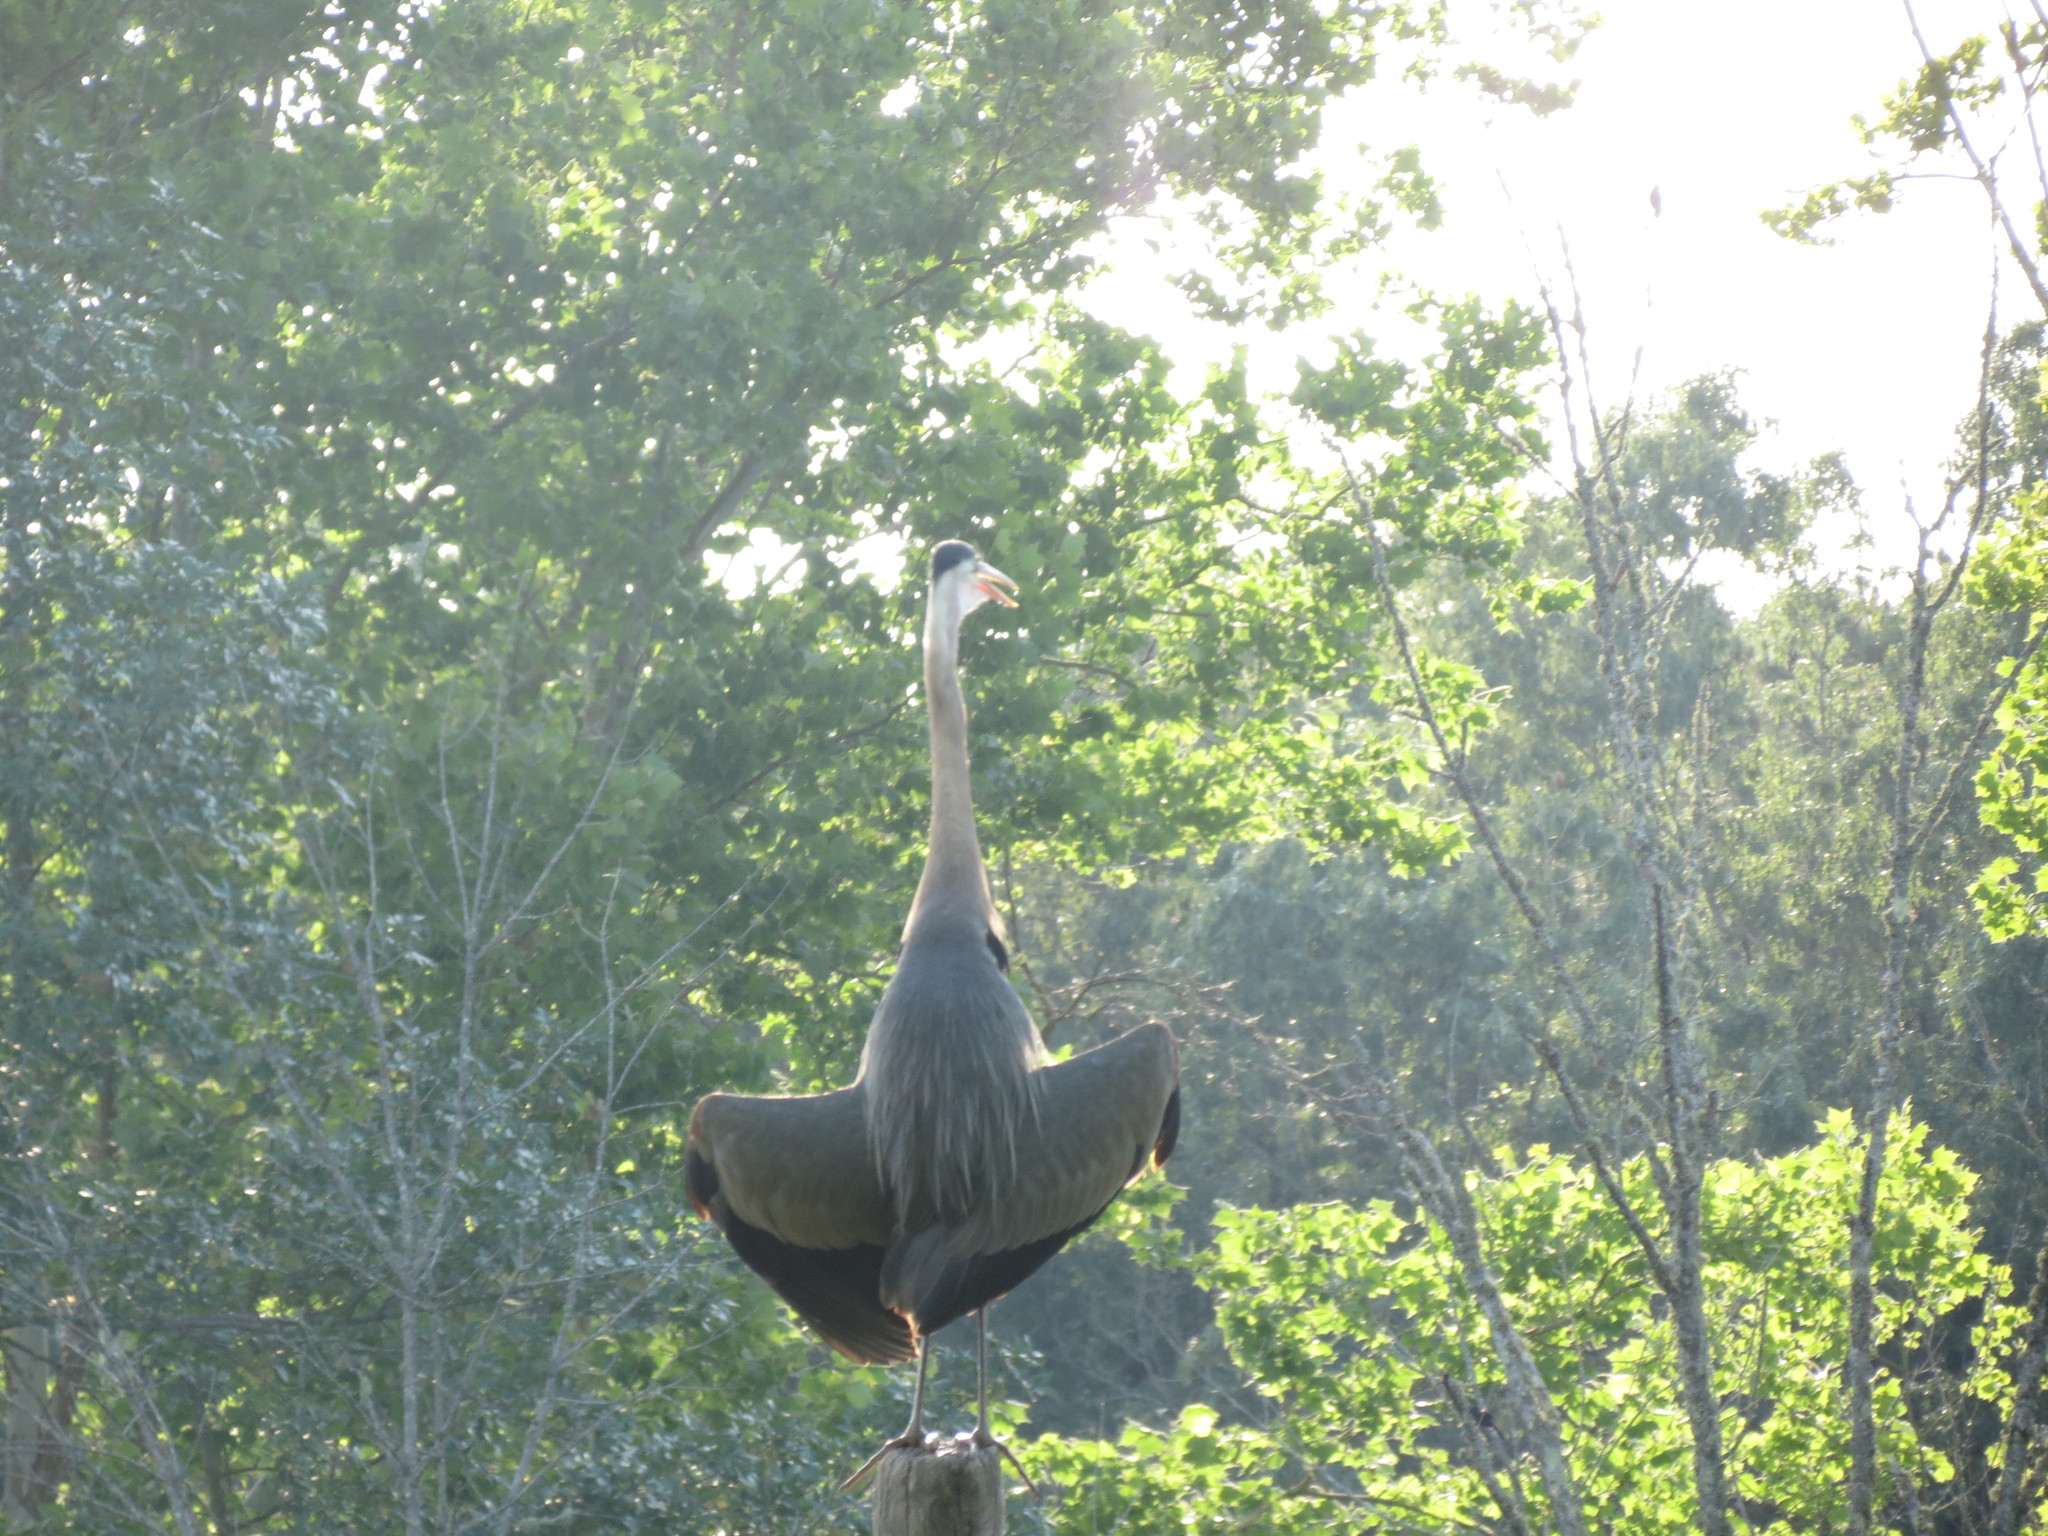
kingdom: Animalia
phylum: Chordata
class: Aves
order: Pelecaniformes
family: Ardeidae
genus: Ardea
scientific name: Ardea herodias
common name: Great blue heron
